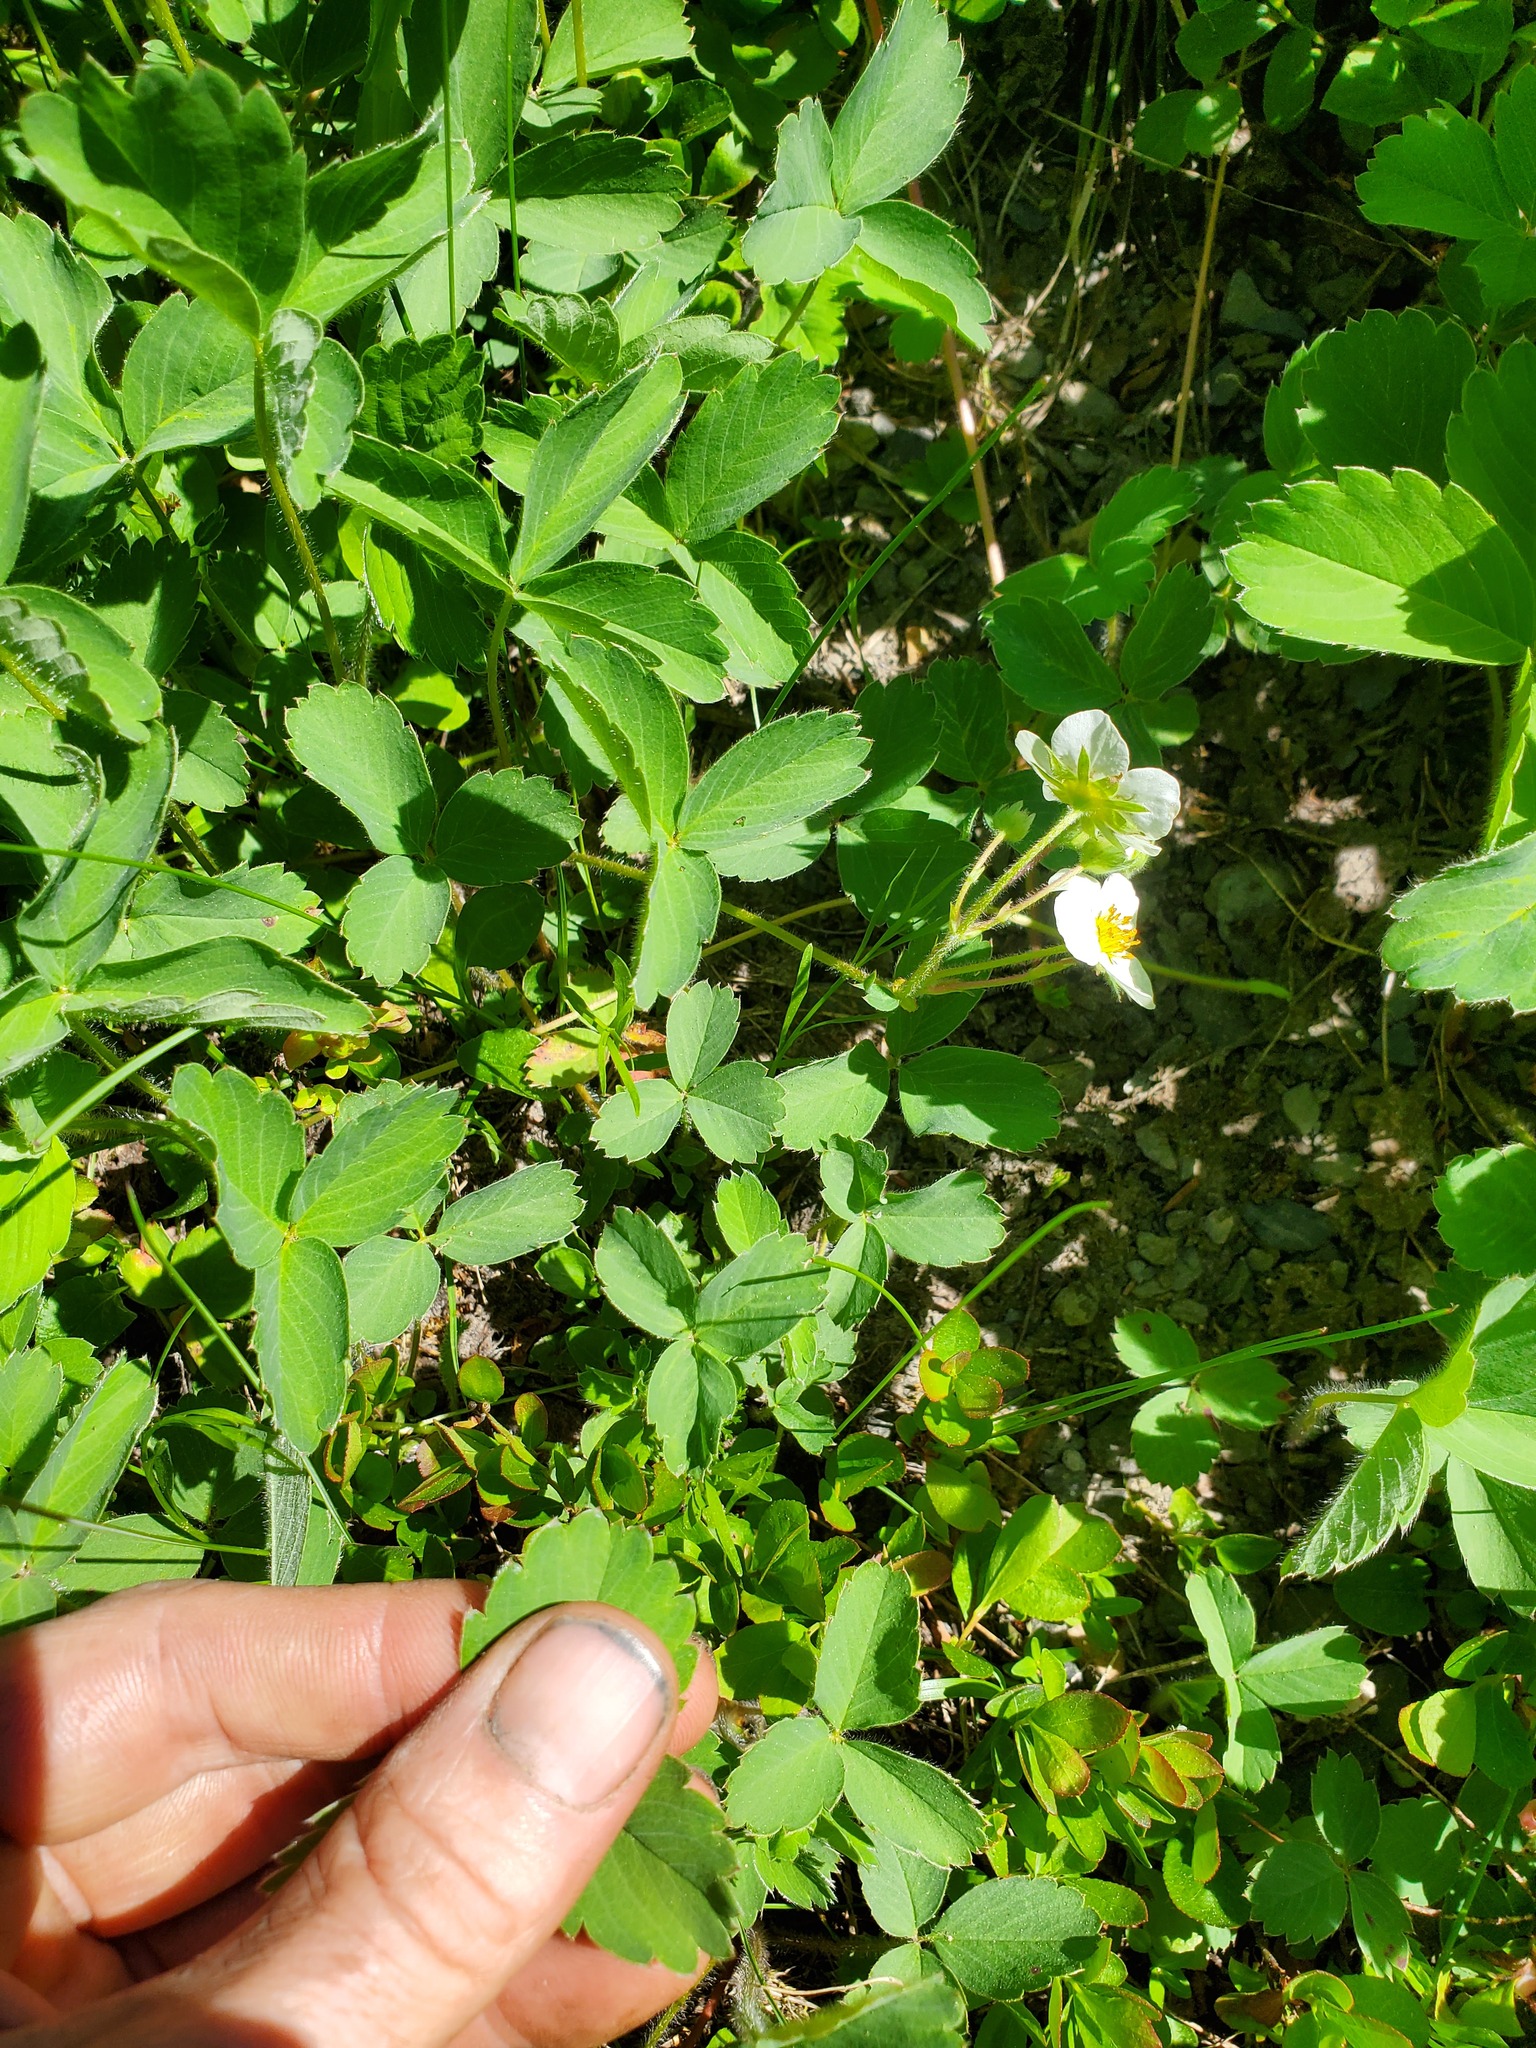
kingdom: Plantae
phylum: Tracheophyta
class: Magnoliopsida
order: Rosales
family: Rosaceae
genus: Fragaria
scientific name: Fragaria virginiana
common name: Thickleaved wild strawberry
